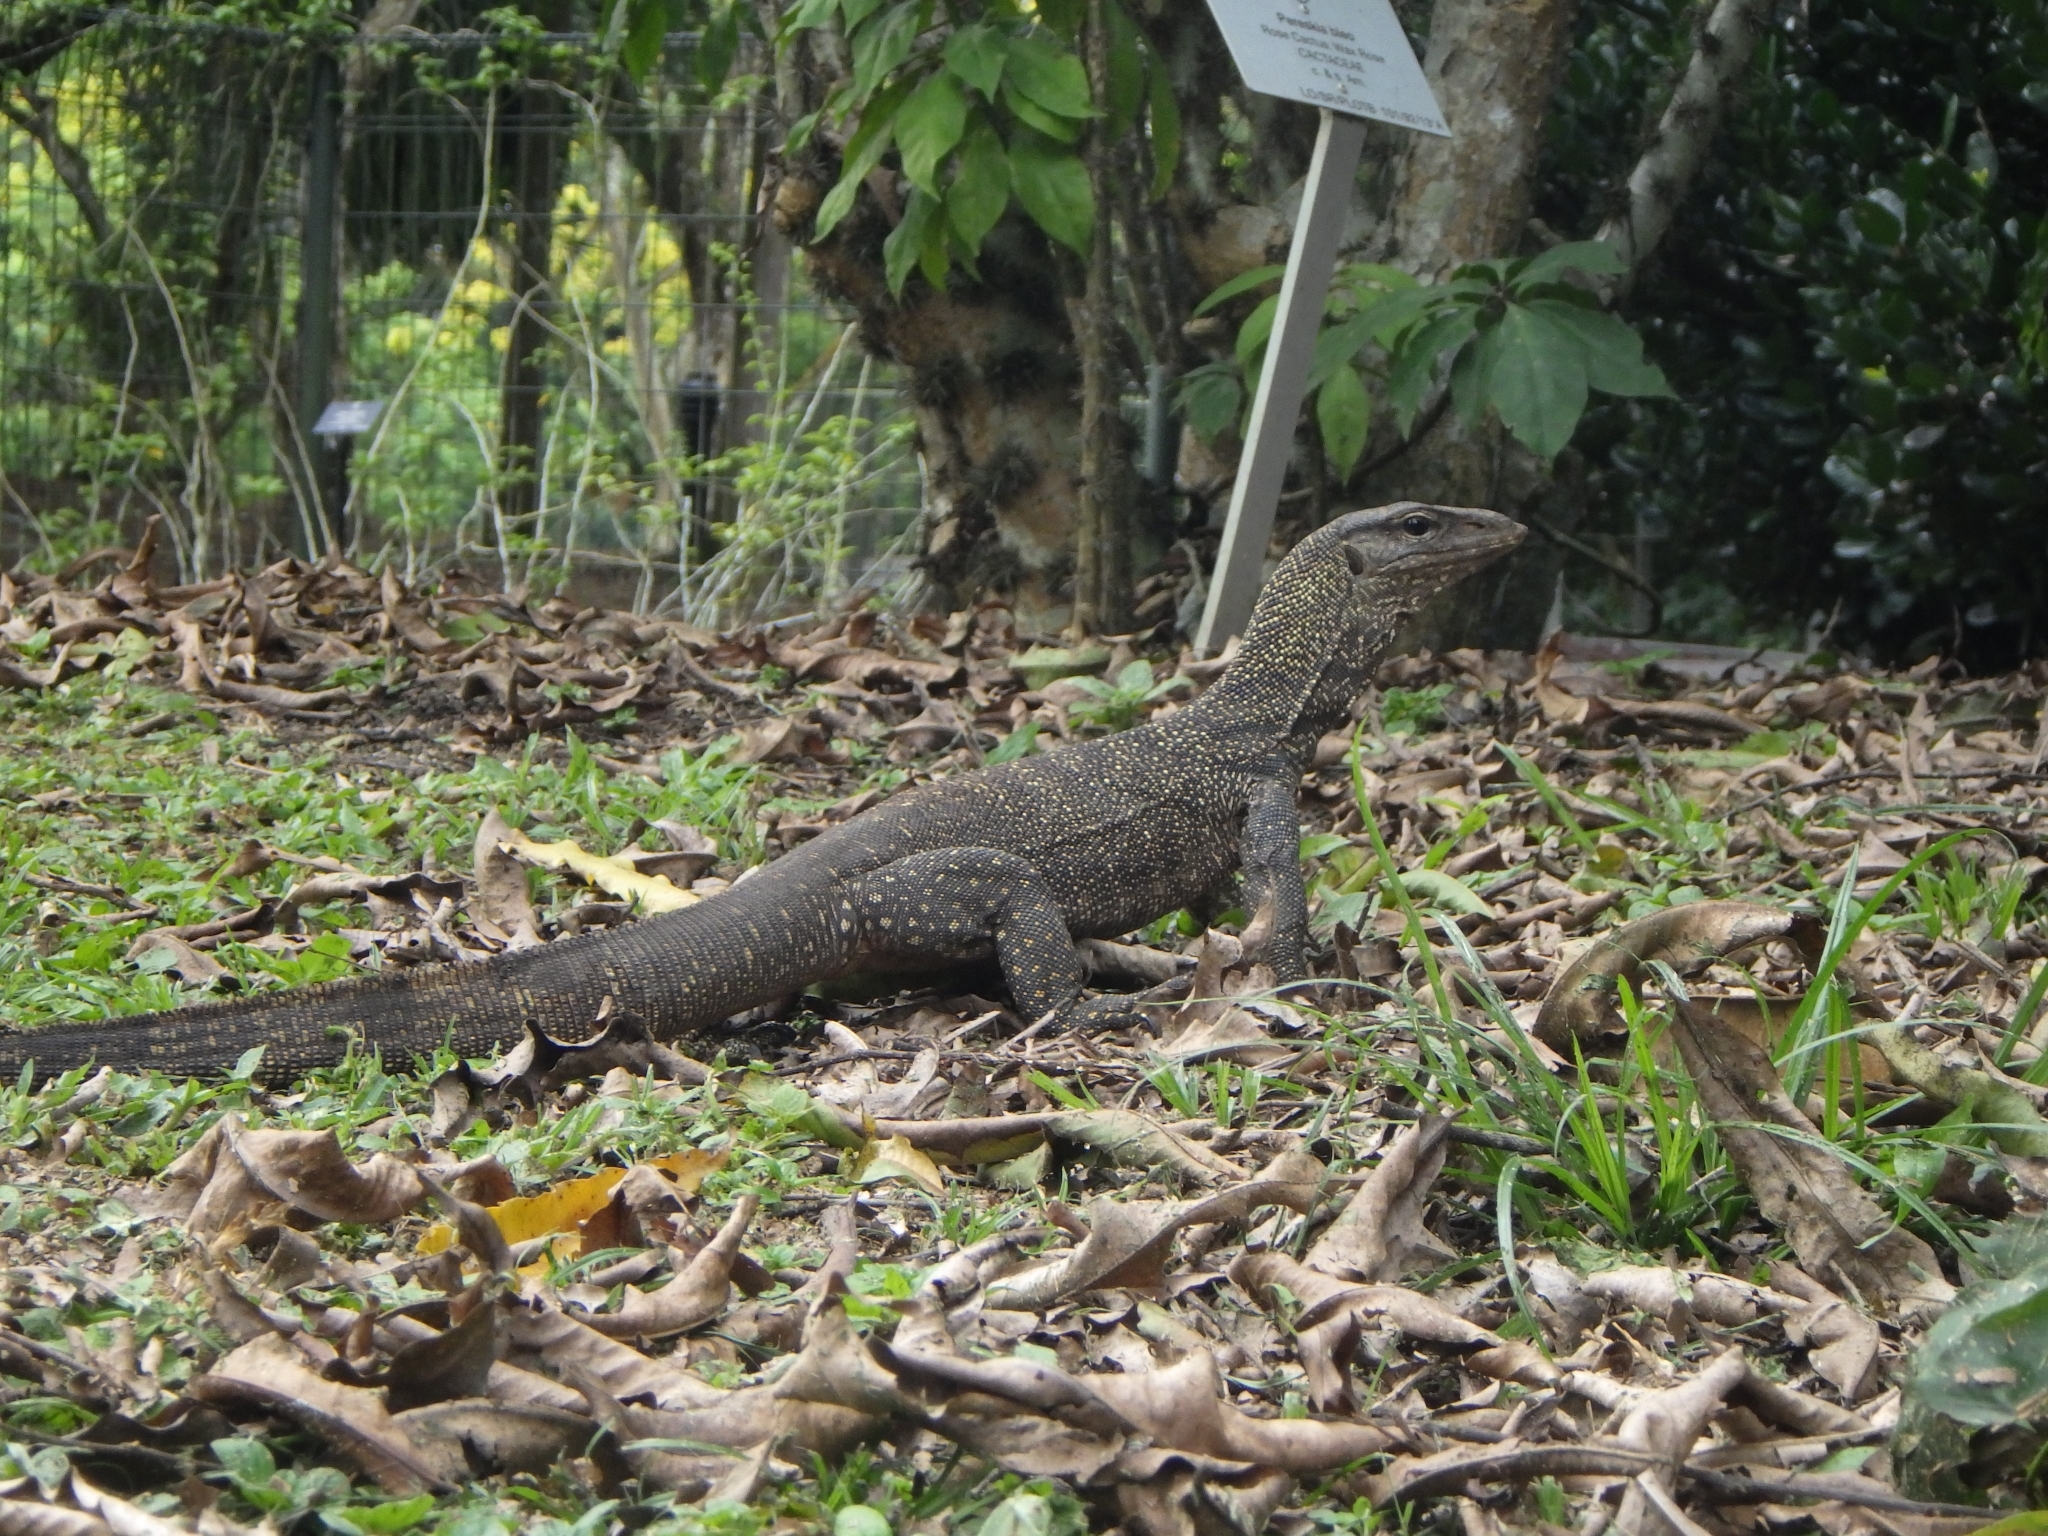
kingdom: Animalia
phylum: Chordata
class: Squamata
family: Varanidae
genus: Varanus
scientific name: Varanus nebulosus
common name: Clouded monitor
